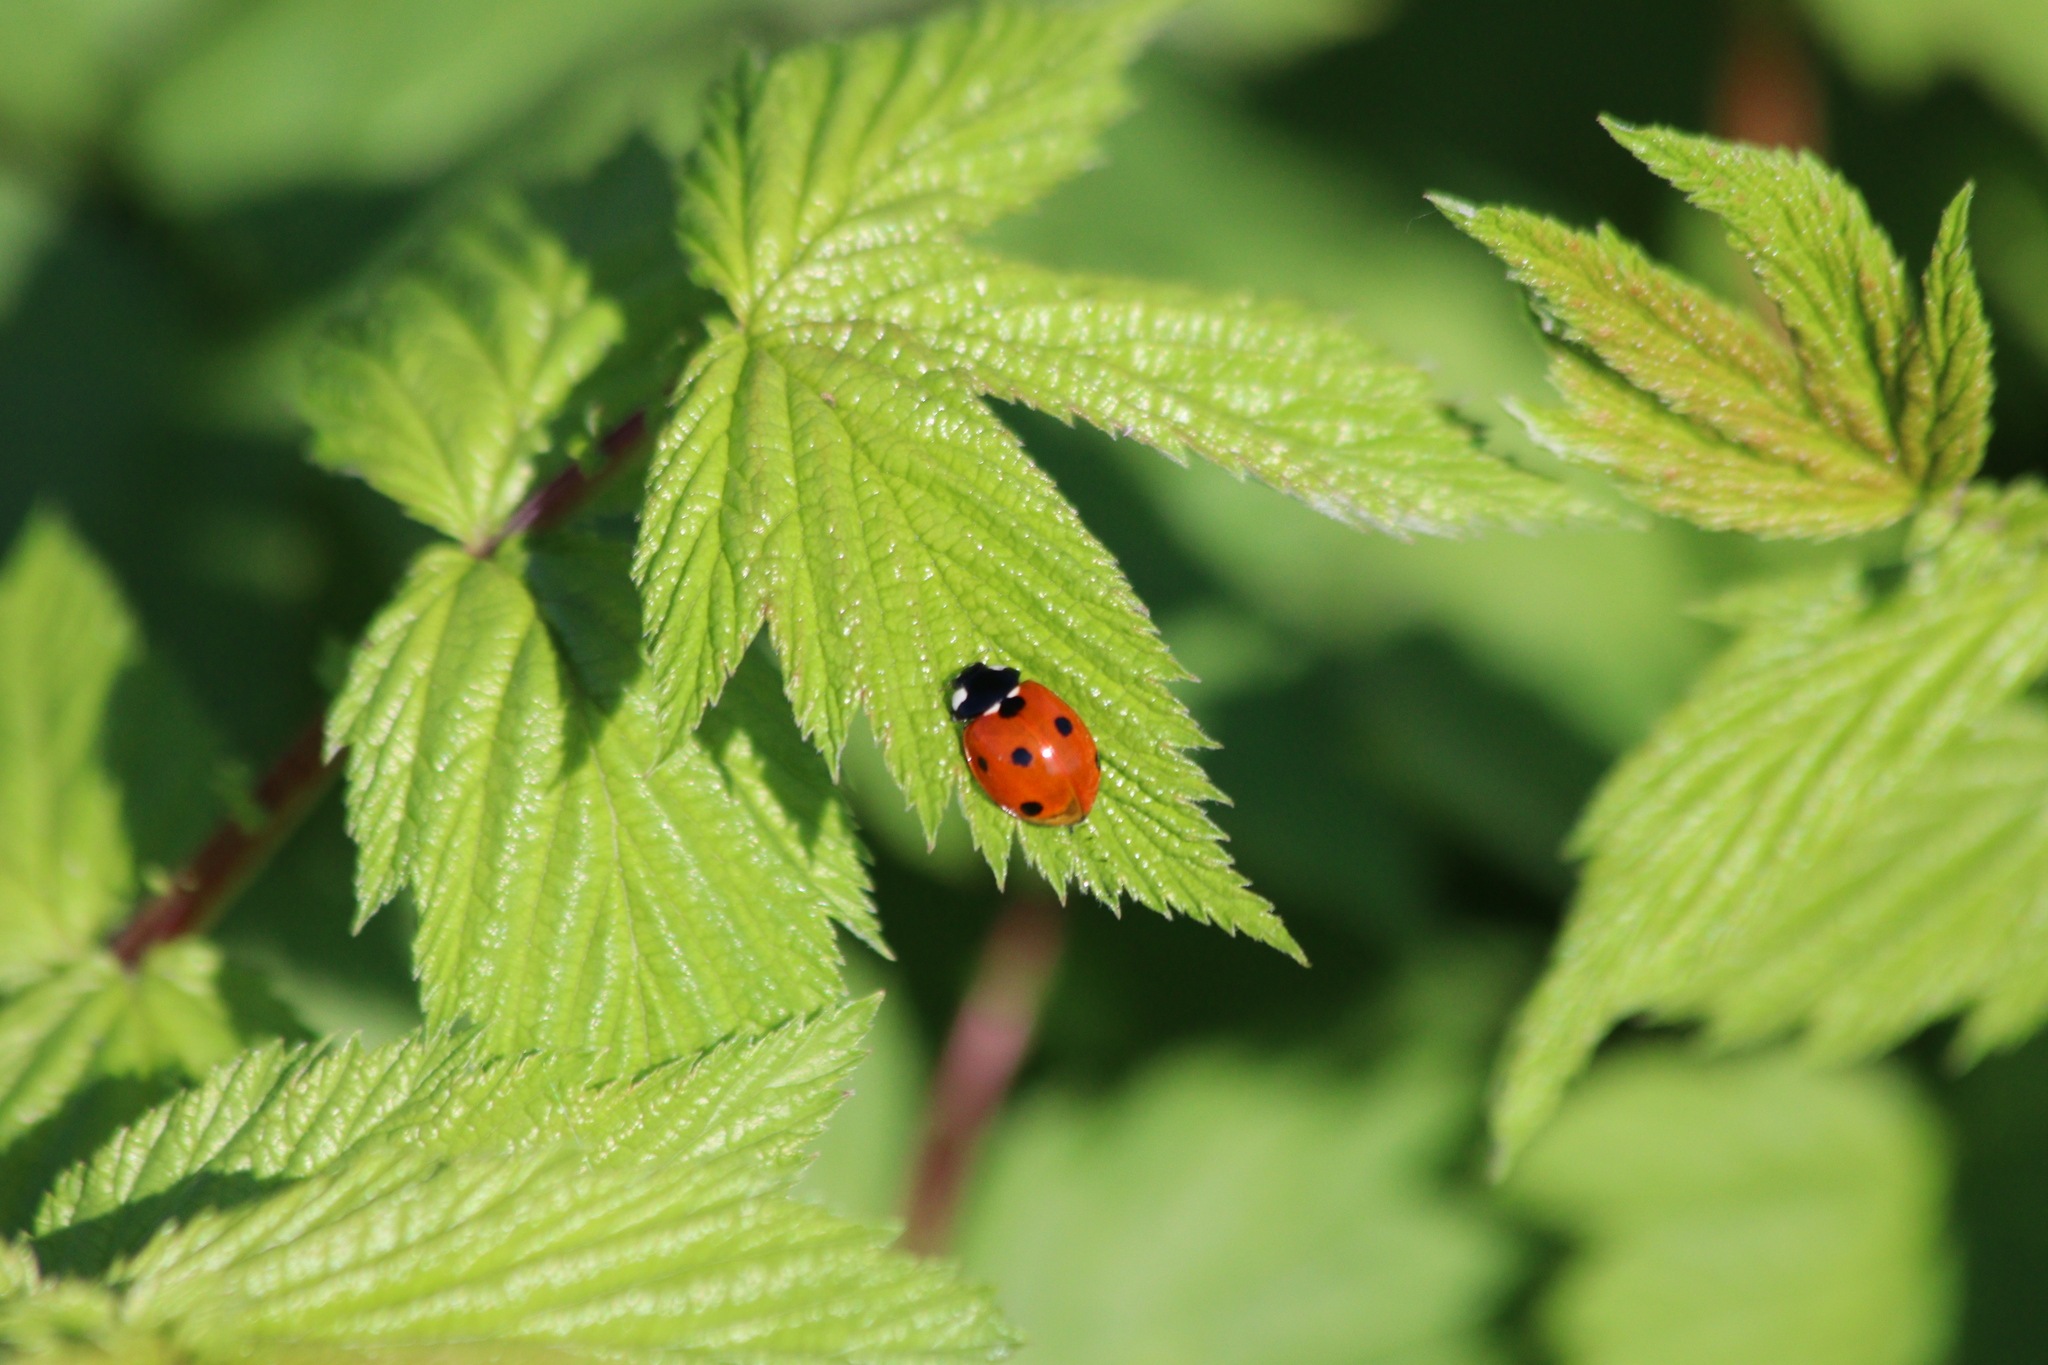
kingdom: Animalia
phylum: Arthropoda
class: Insecta
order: Coleoptera
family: Coccinellidae
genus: Coccinella
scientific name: Coccinella septempunctata
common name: Sevenspotted lady beetle
